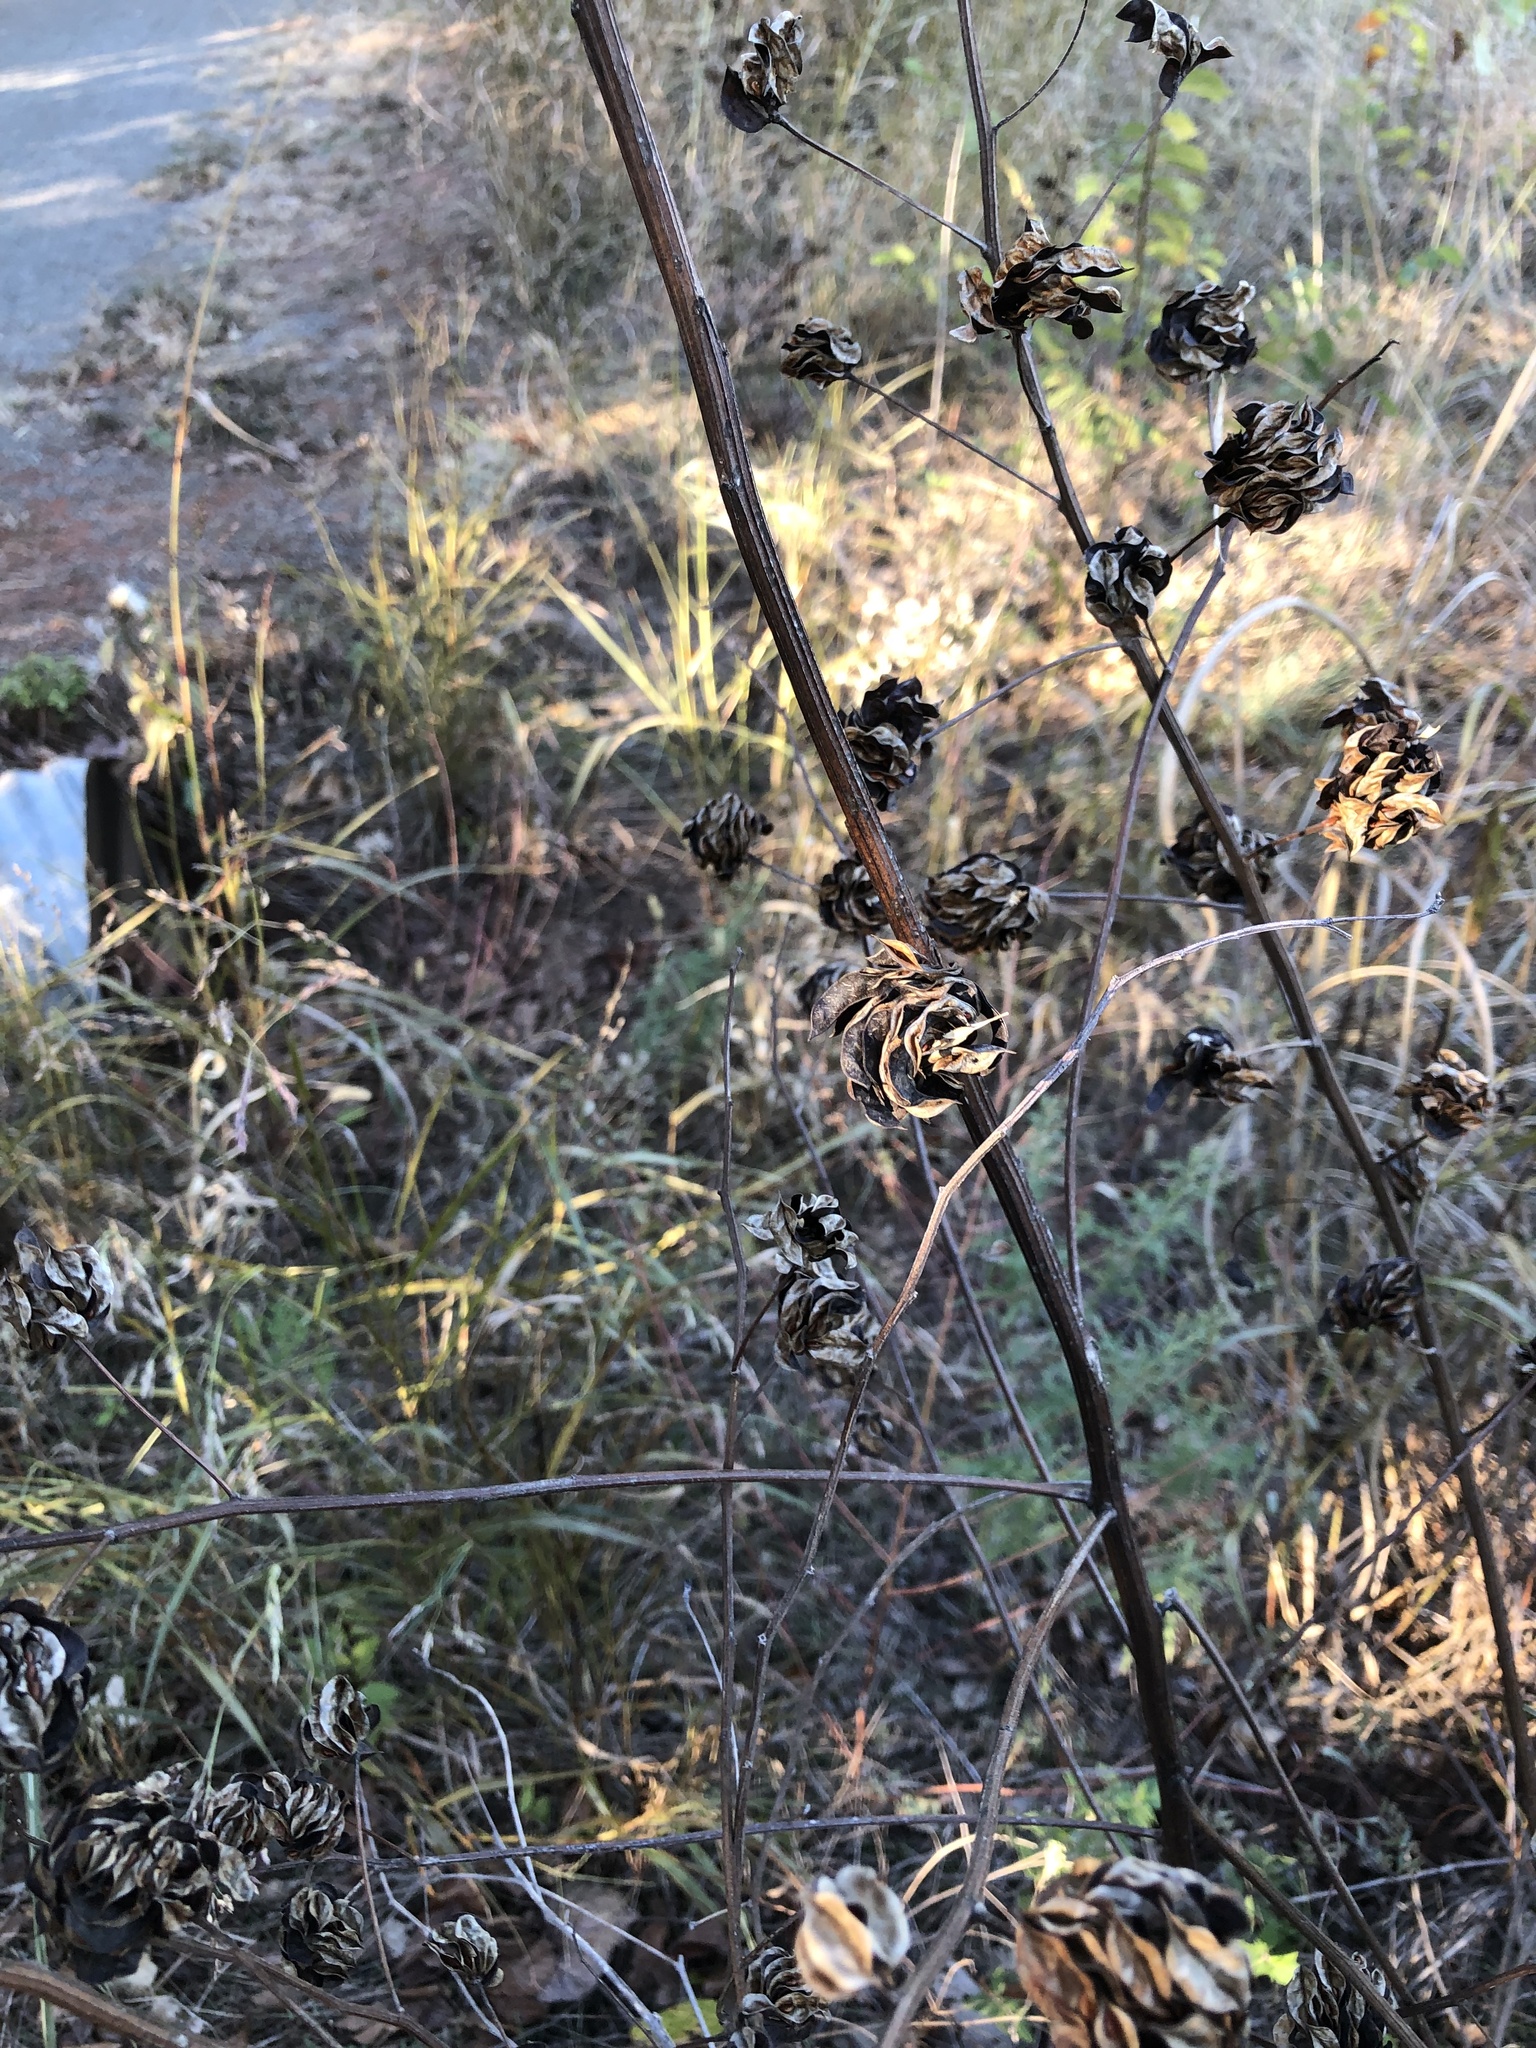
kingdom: Plantae
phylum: Tracheophyta
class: Magnoliopsida
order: Fabales
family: Fabaceae
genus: Desmanthus
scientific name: Desmanthus illinoensis
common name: Illinois bundle-flower
